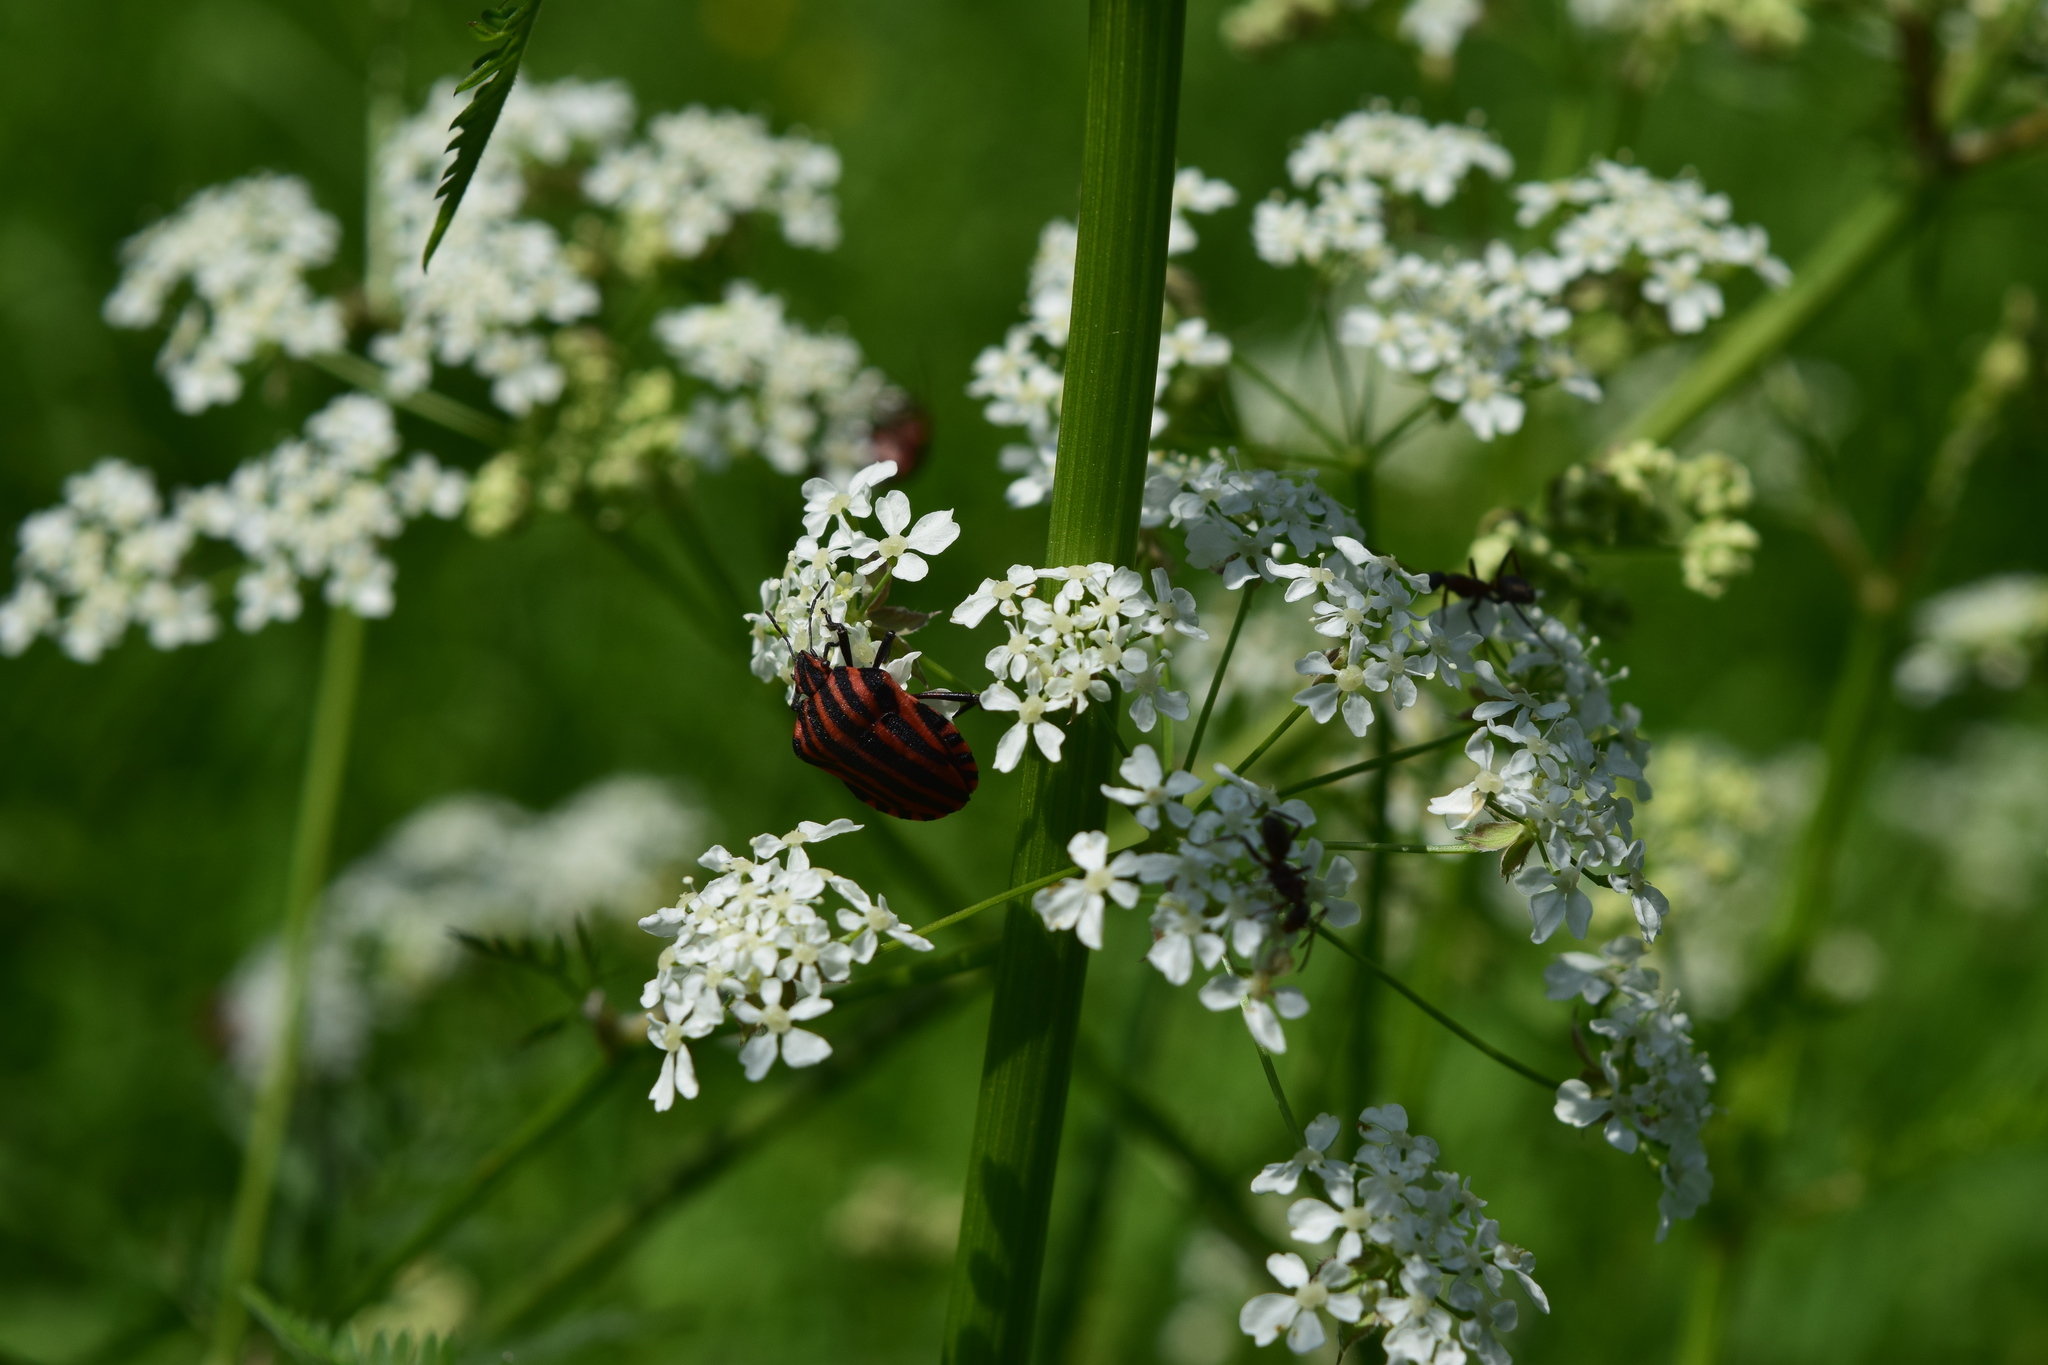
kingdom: Animalia
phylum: Arthropoda
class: Insecta
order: Hemiptera
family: Pentatomidae
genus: Graphosoma
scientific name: Graphosoma italicum
